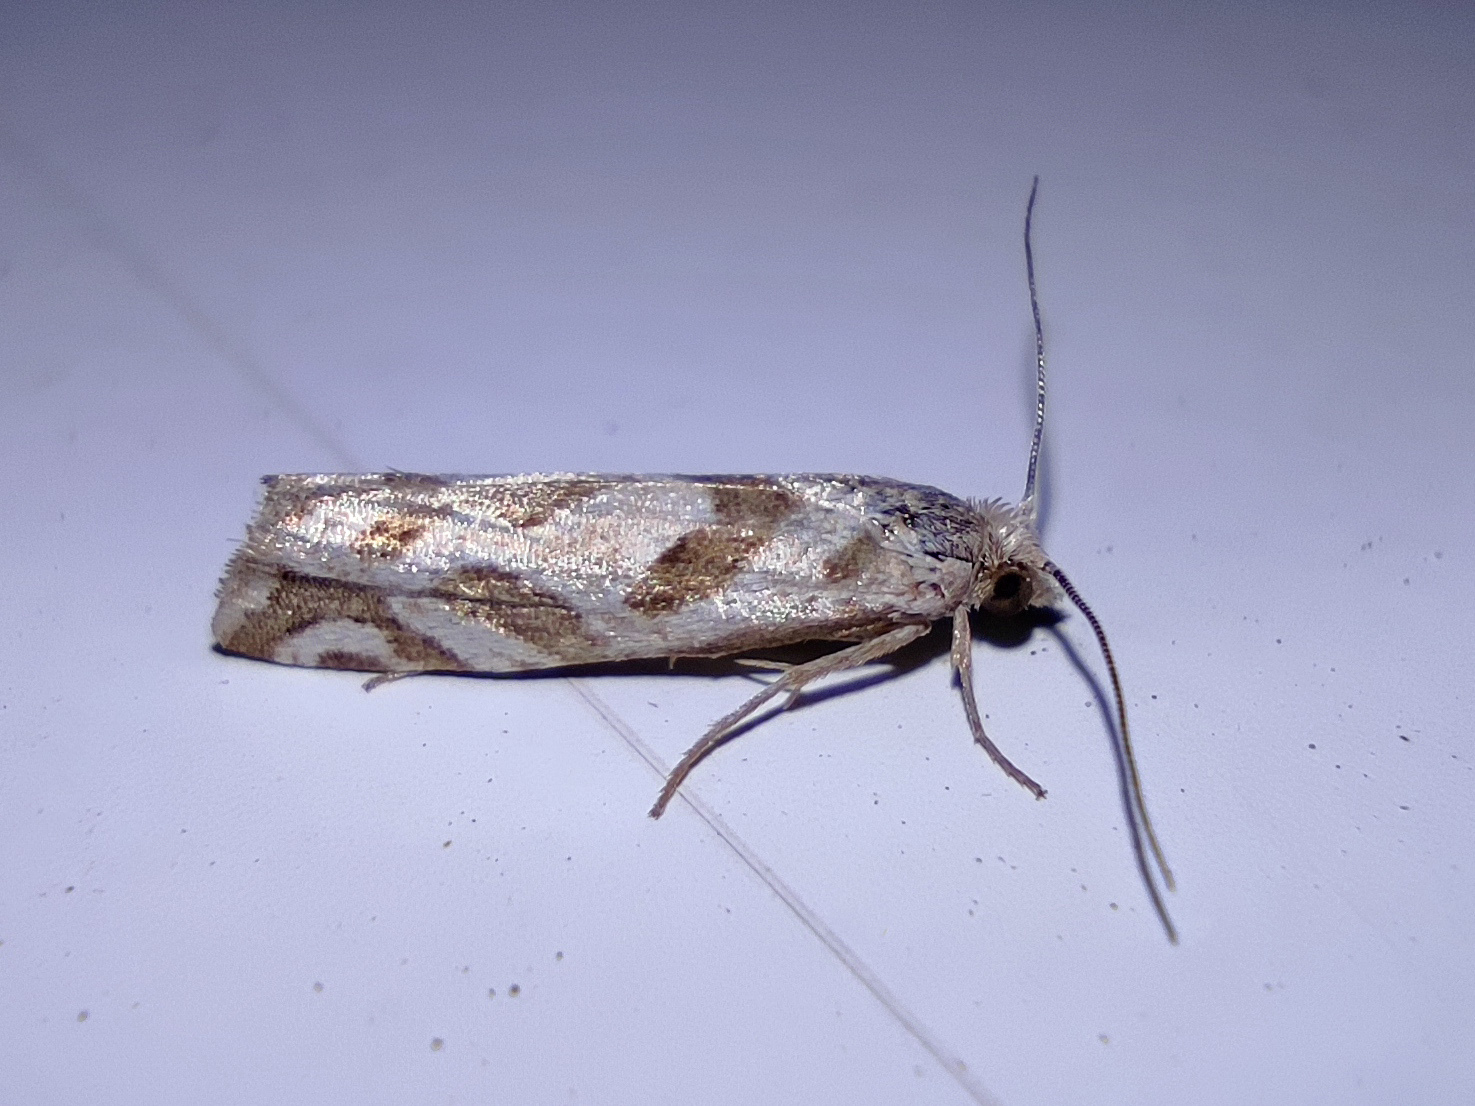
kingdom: Animalia
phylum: Arthropoda
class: Insecta
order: Lepidoptera
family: Tortricidae
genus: Pelochrista
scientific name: Pelochrista arabescana
